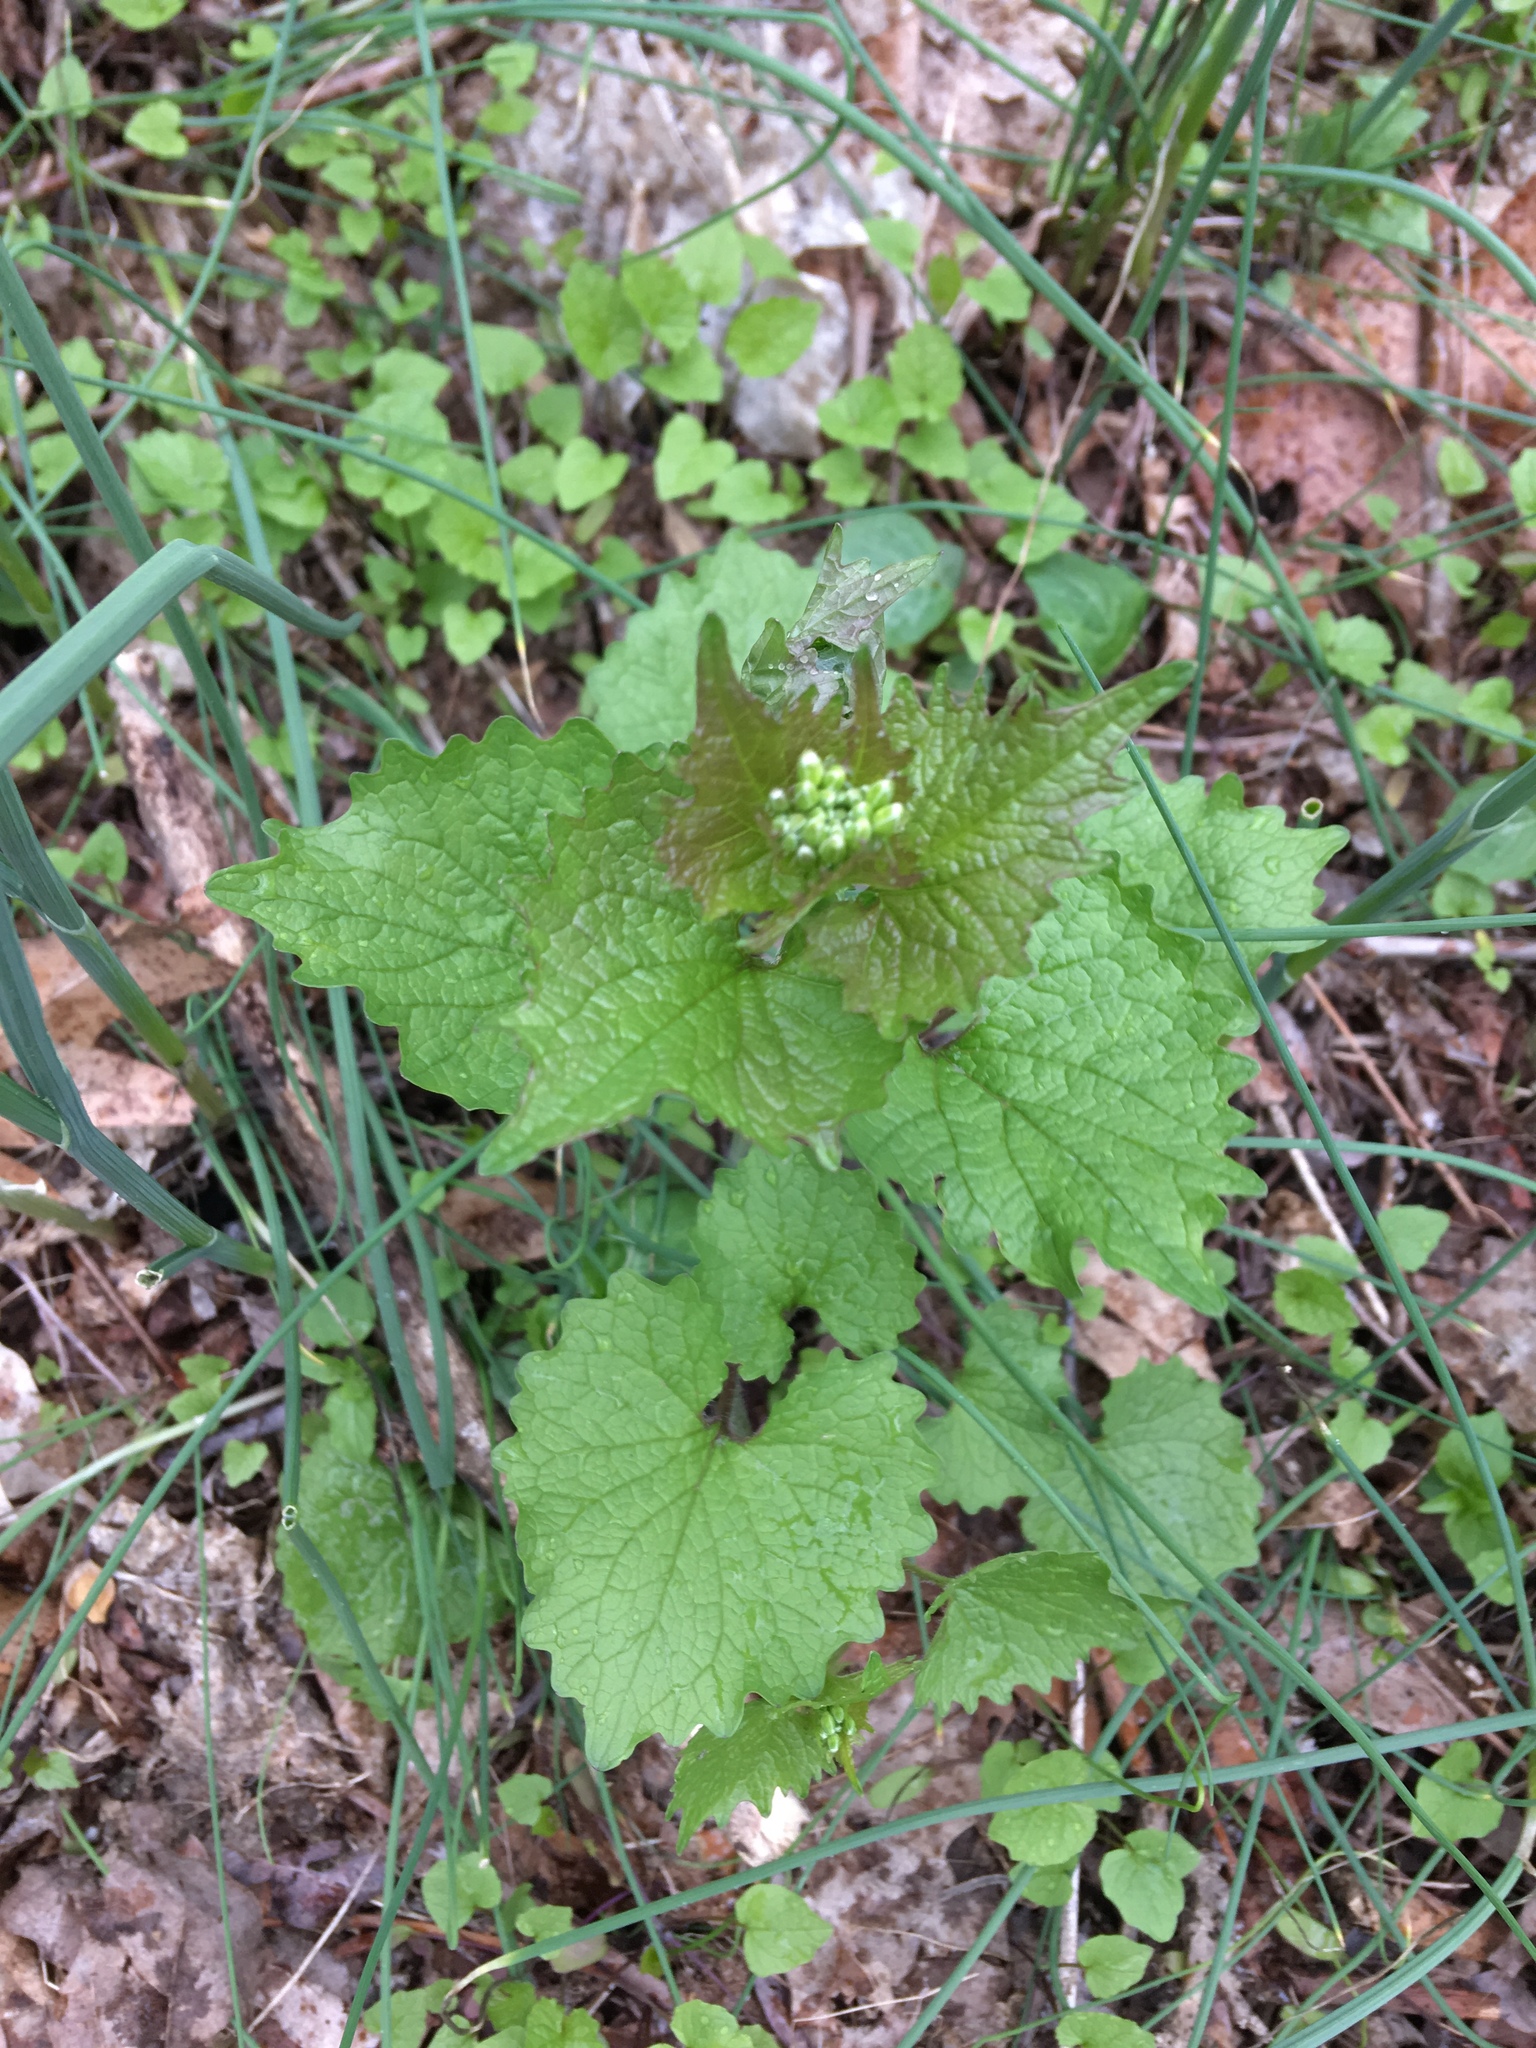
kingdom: Plantae
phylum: Tracheophyta
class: Magnoliopsida
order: Brassicales
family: Brassicaceae
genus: Alliaria
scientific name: Alliaria petiolata
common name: Garlic mustard
